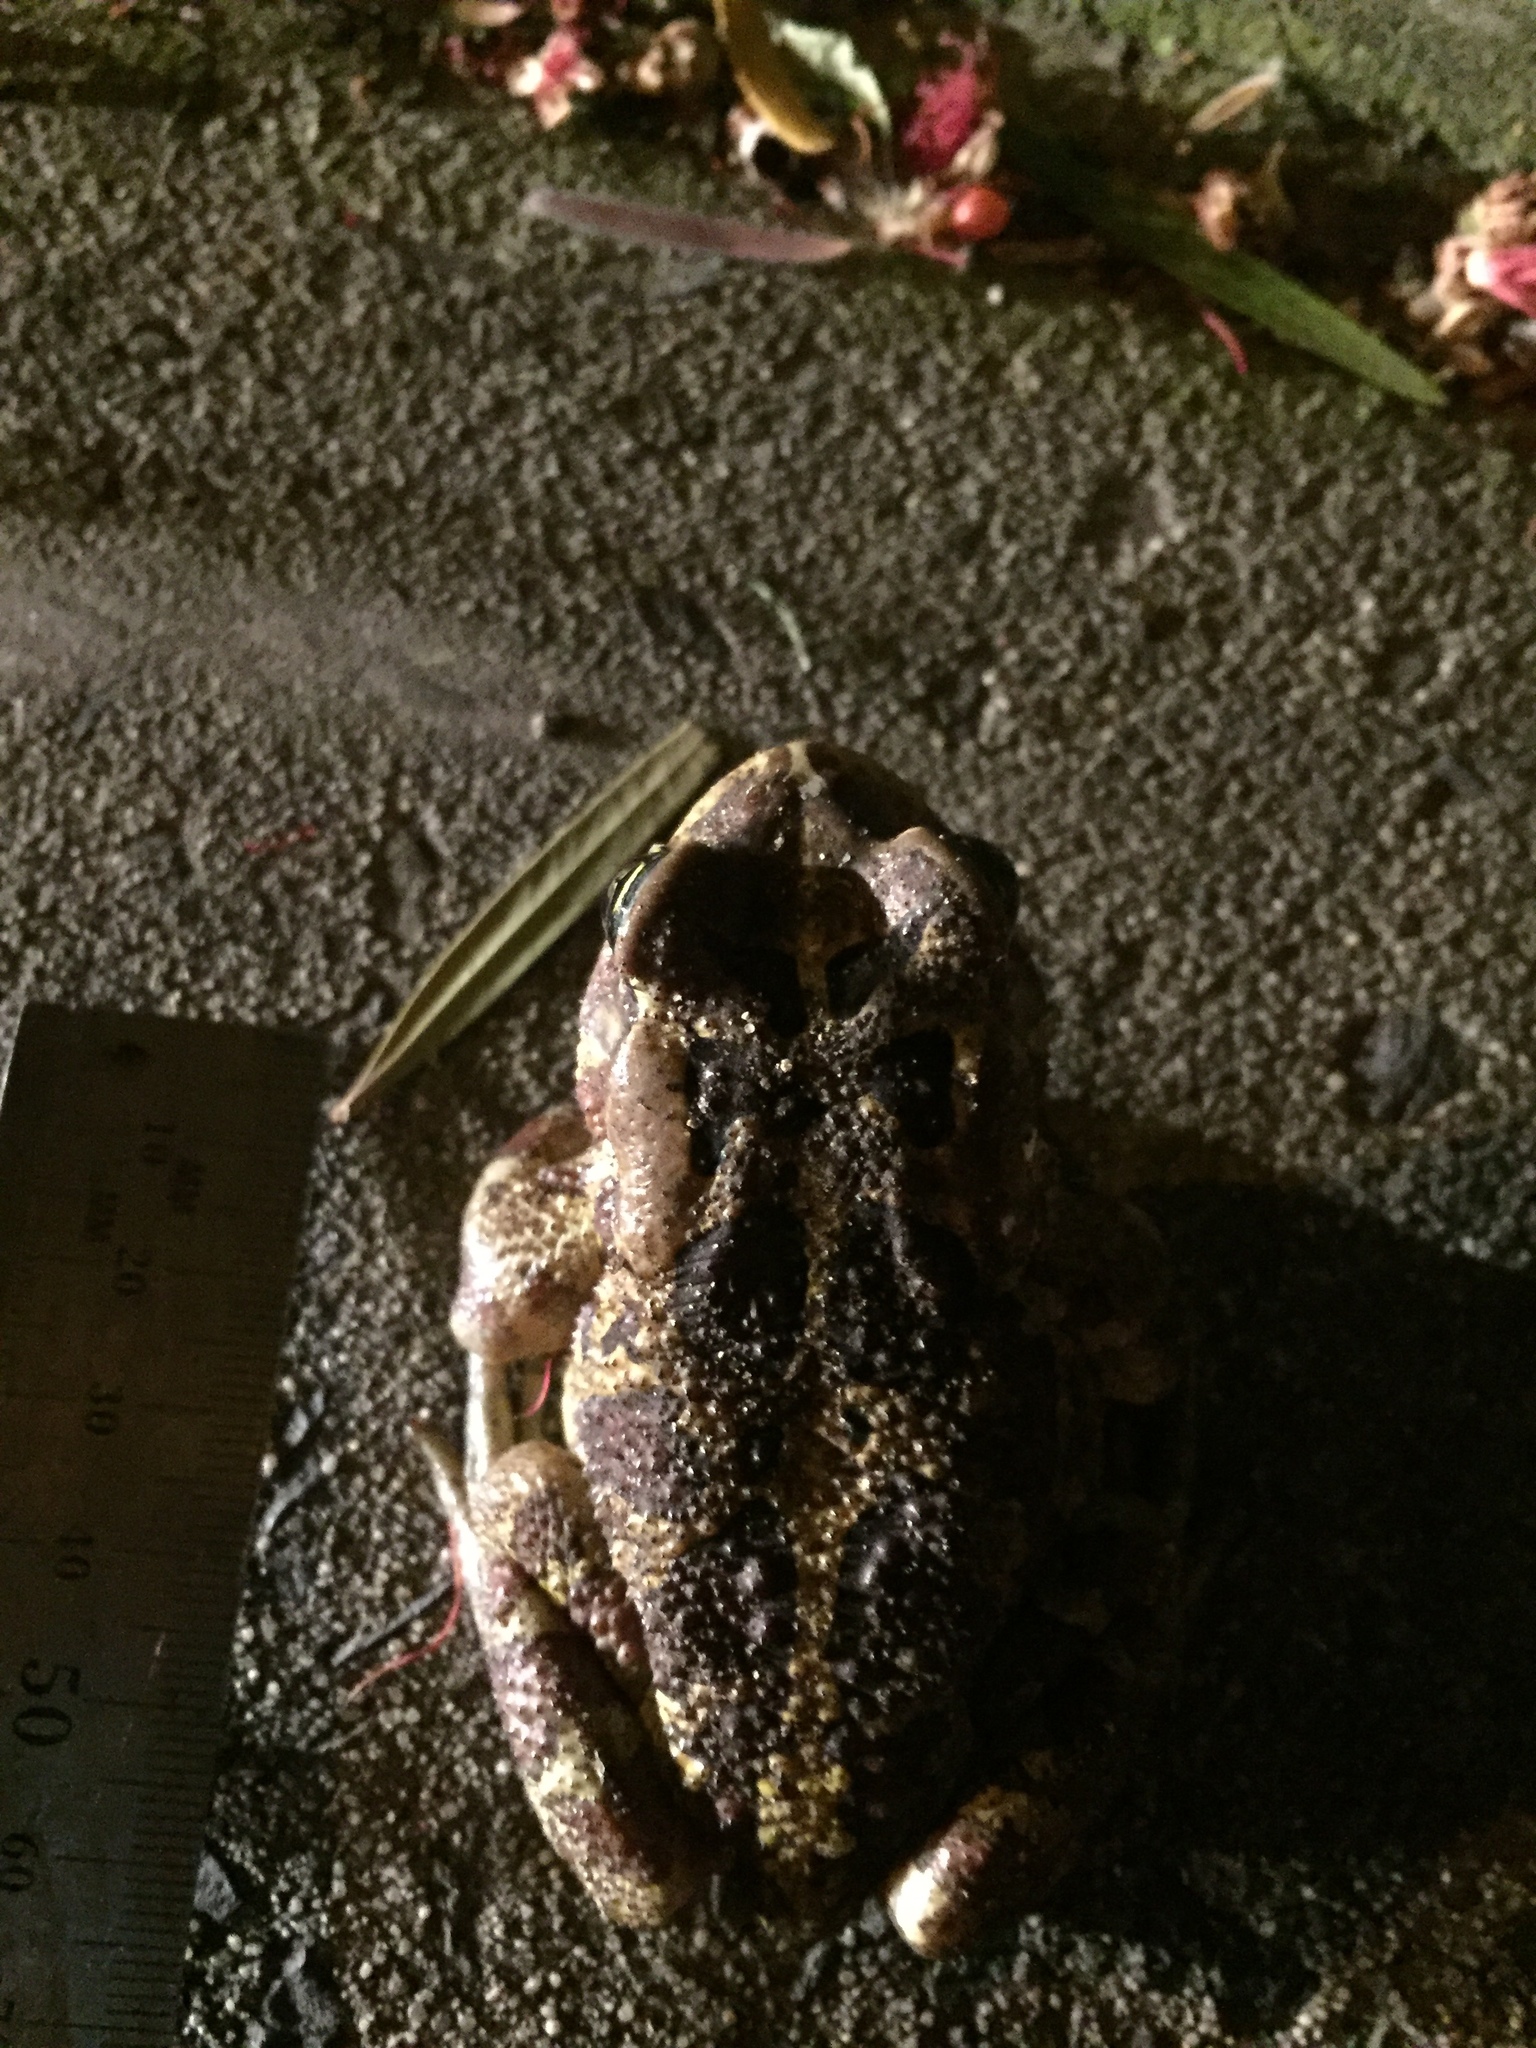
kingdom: Animalia
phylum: Chordata
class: Amphibia
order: Anura
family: Bufonidae
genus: Sclerophrys
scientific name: Sclerophrys pantherina
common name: Panther toad
